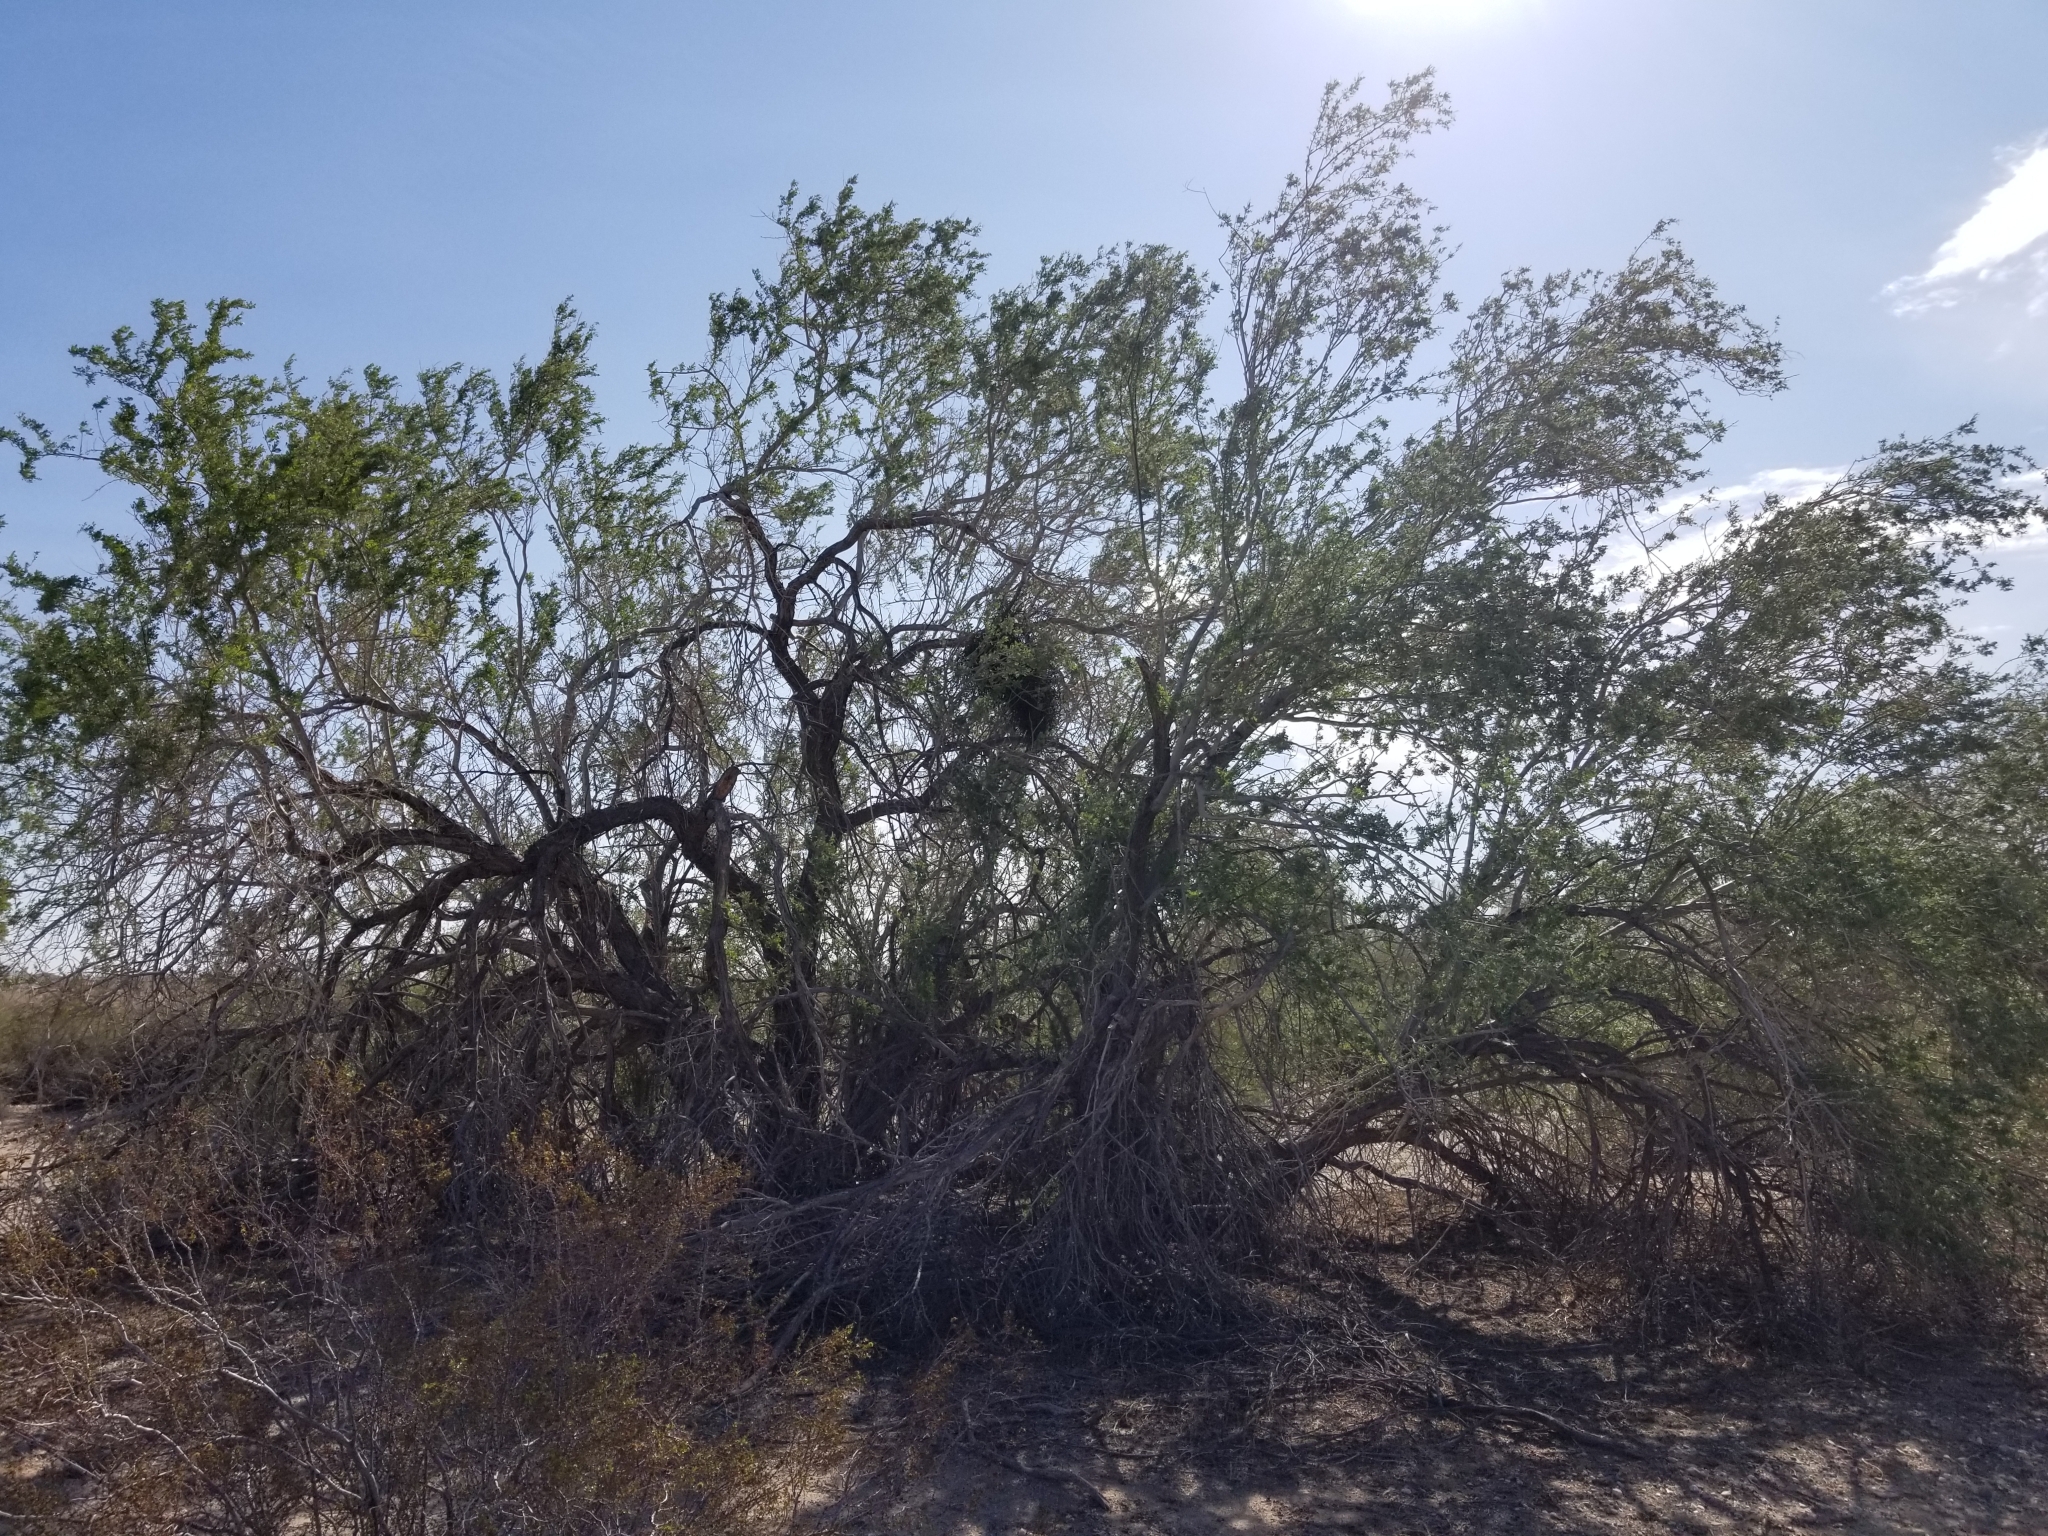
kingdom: Plantae
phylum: Tracheophyta
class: Magnoliopsida
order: Fabales
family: Fabaceae
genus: Olneya
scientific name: Olneya tesota
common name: Desert ironwood
